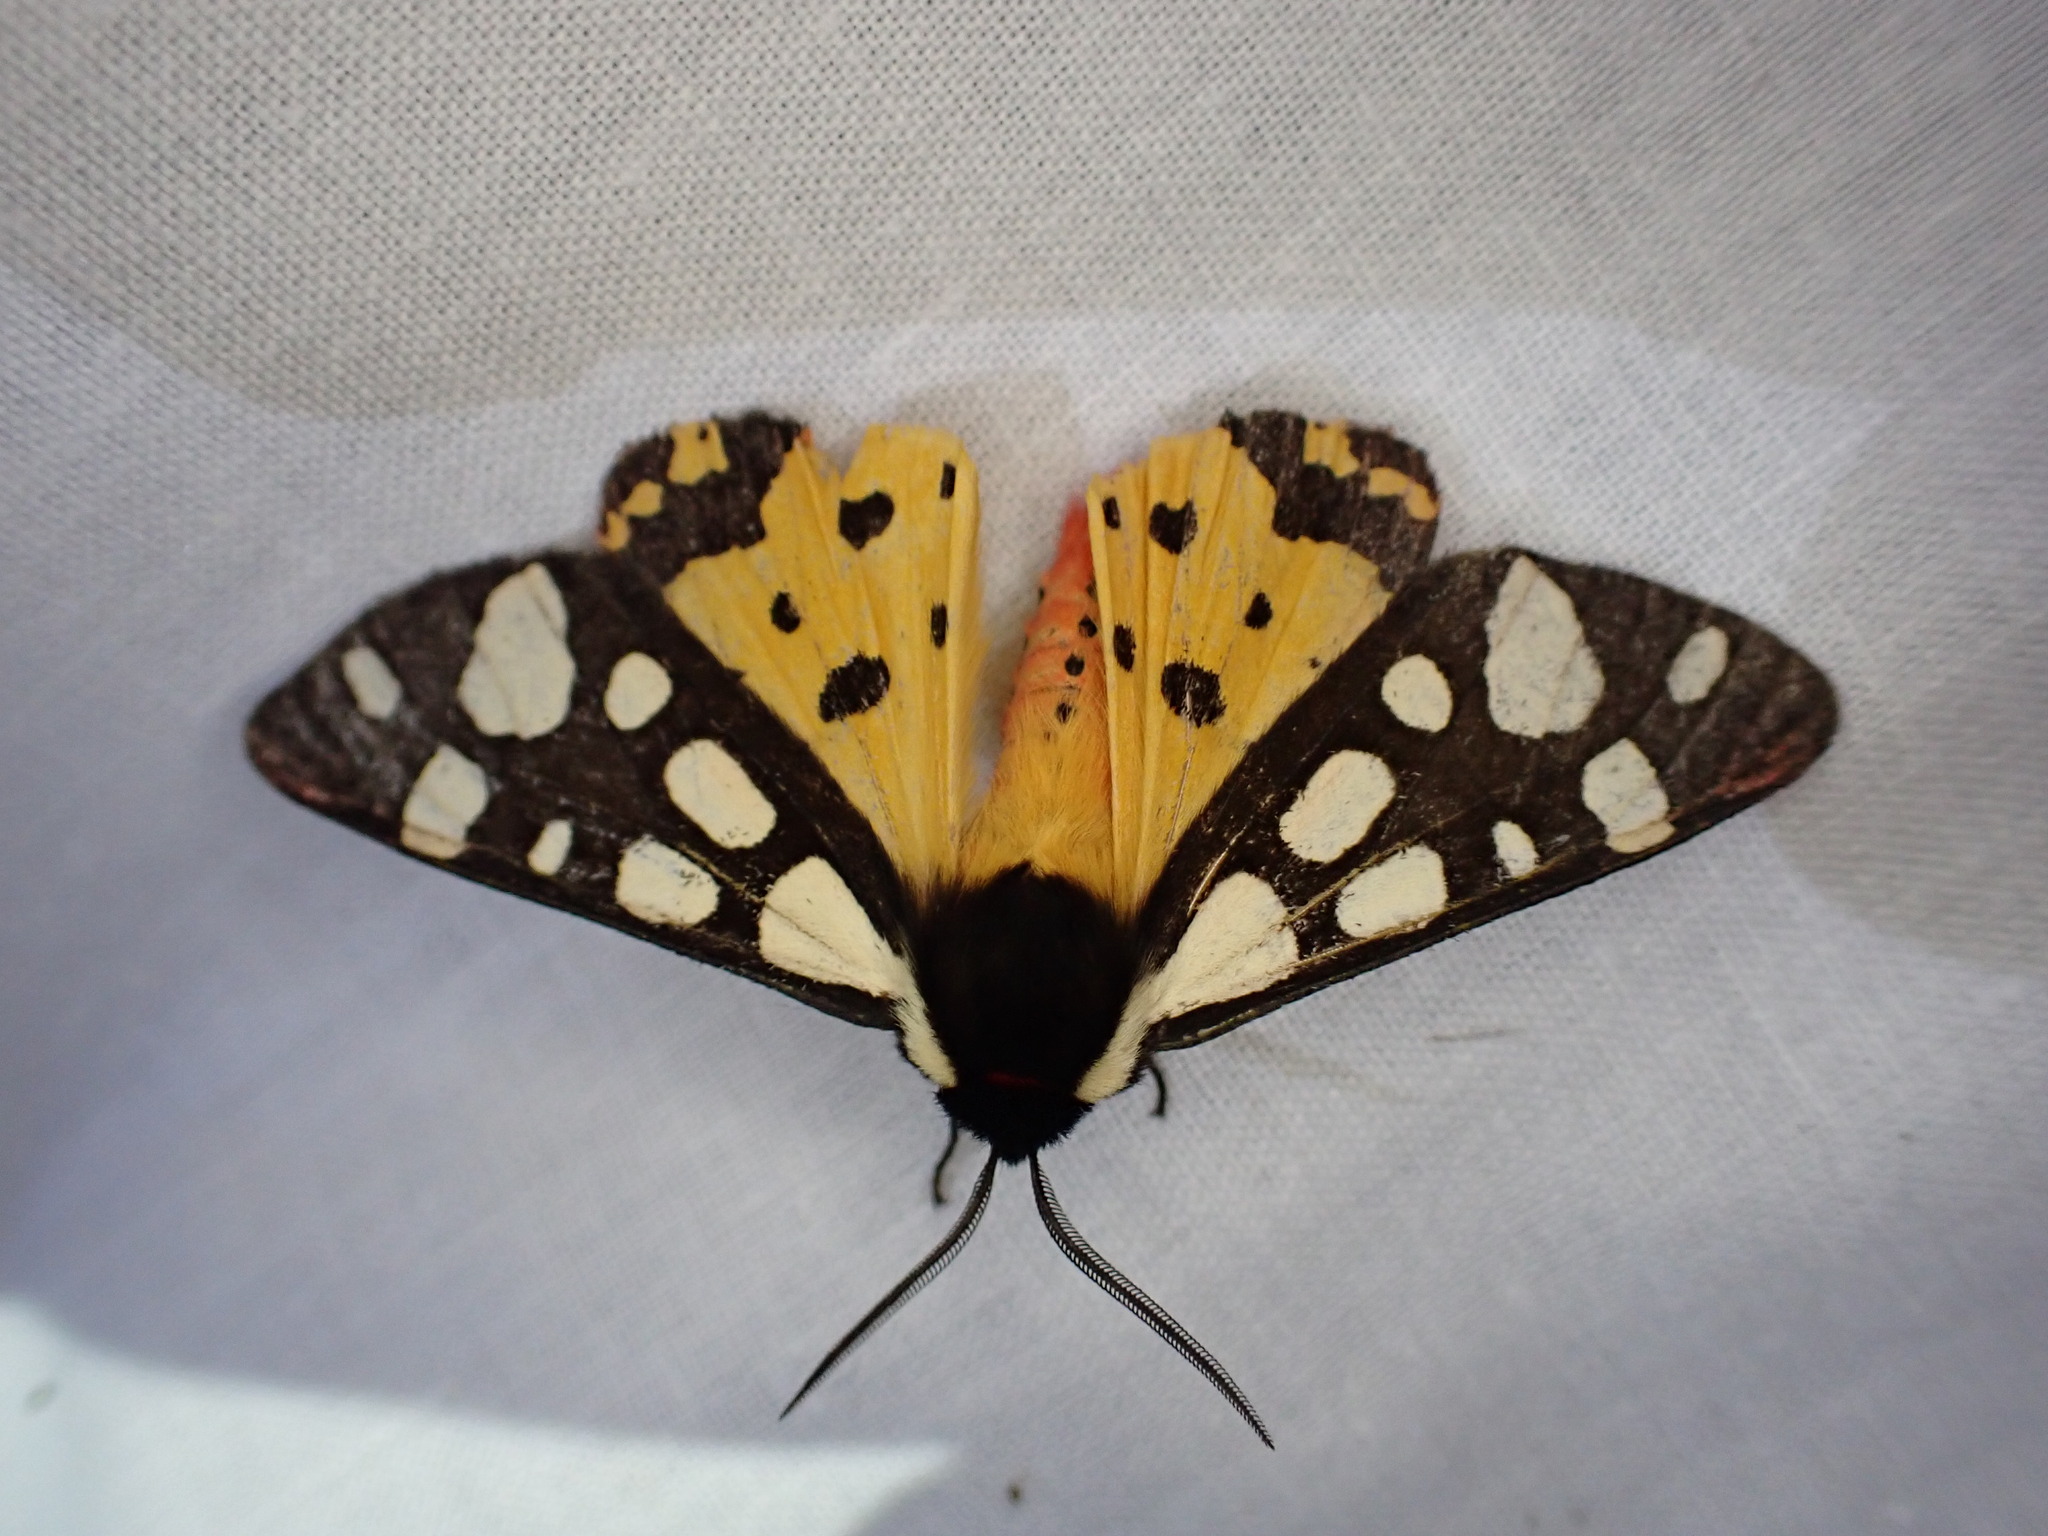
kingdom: Animalia
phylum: Arthropoda
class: Insecta
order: Lepidoptera
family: Erebidae
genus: Epicallia
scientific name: Epicallia villica
